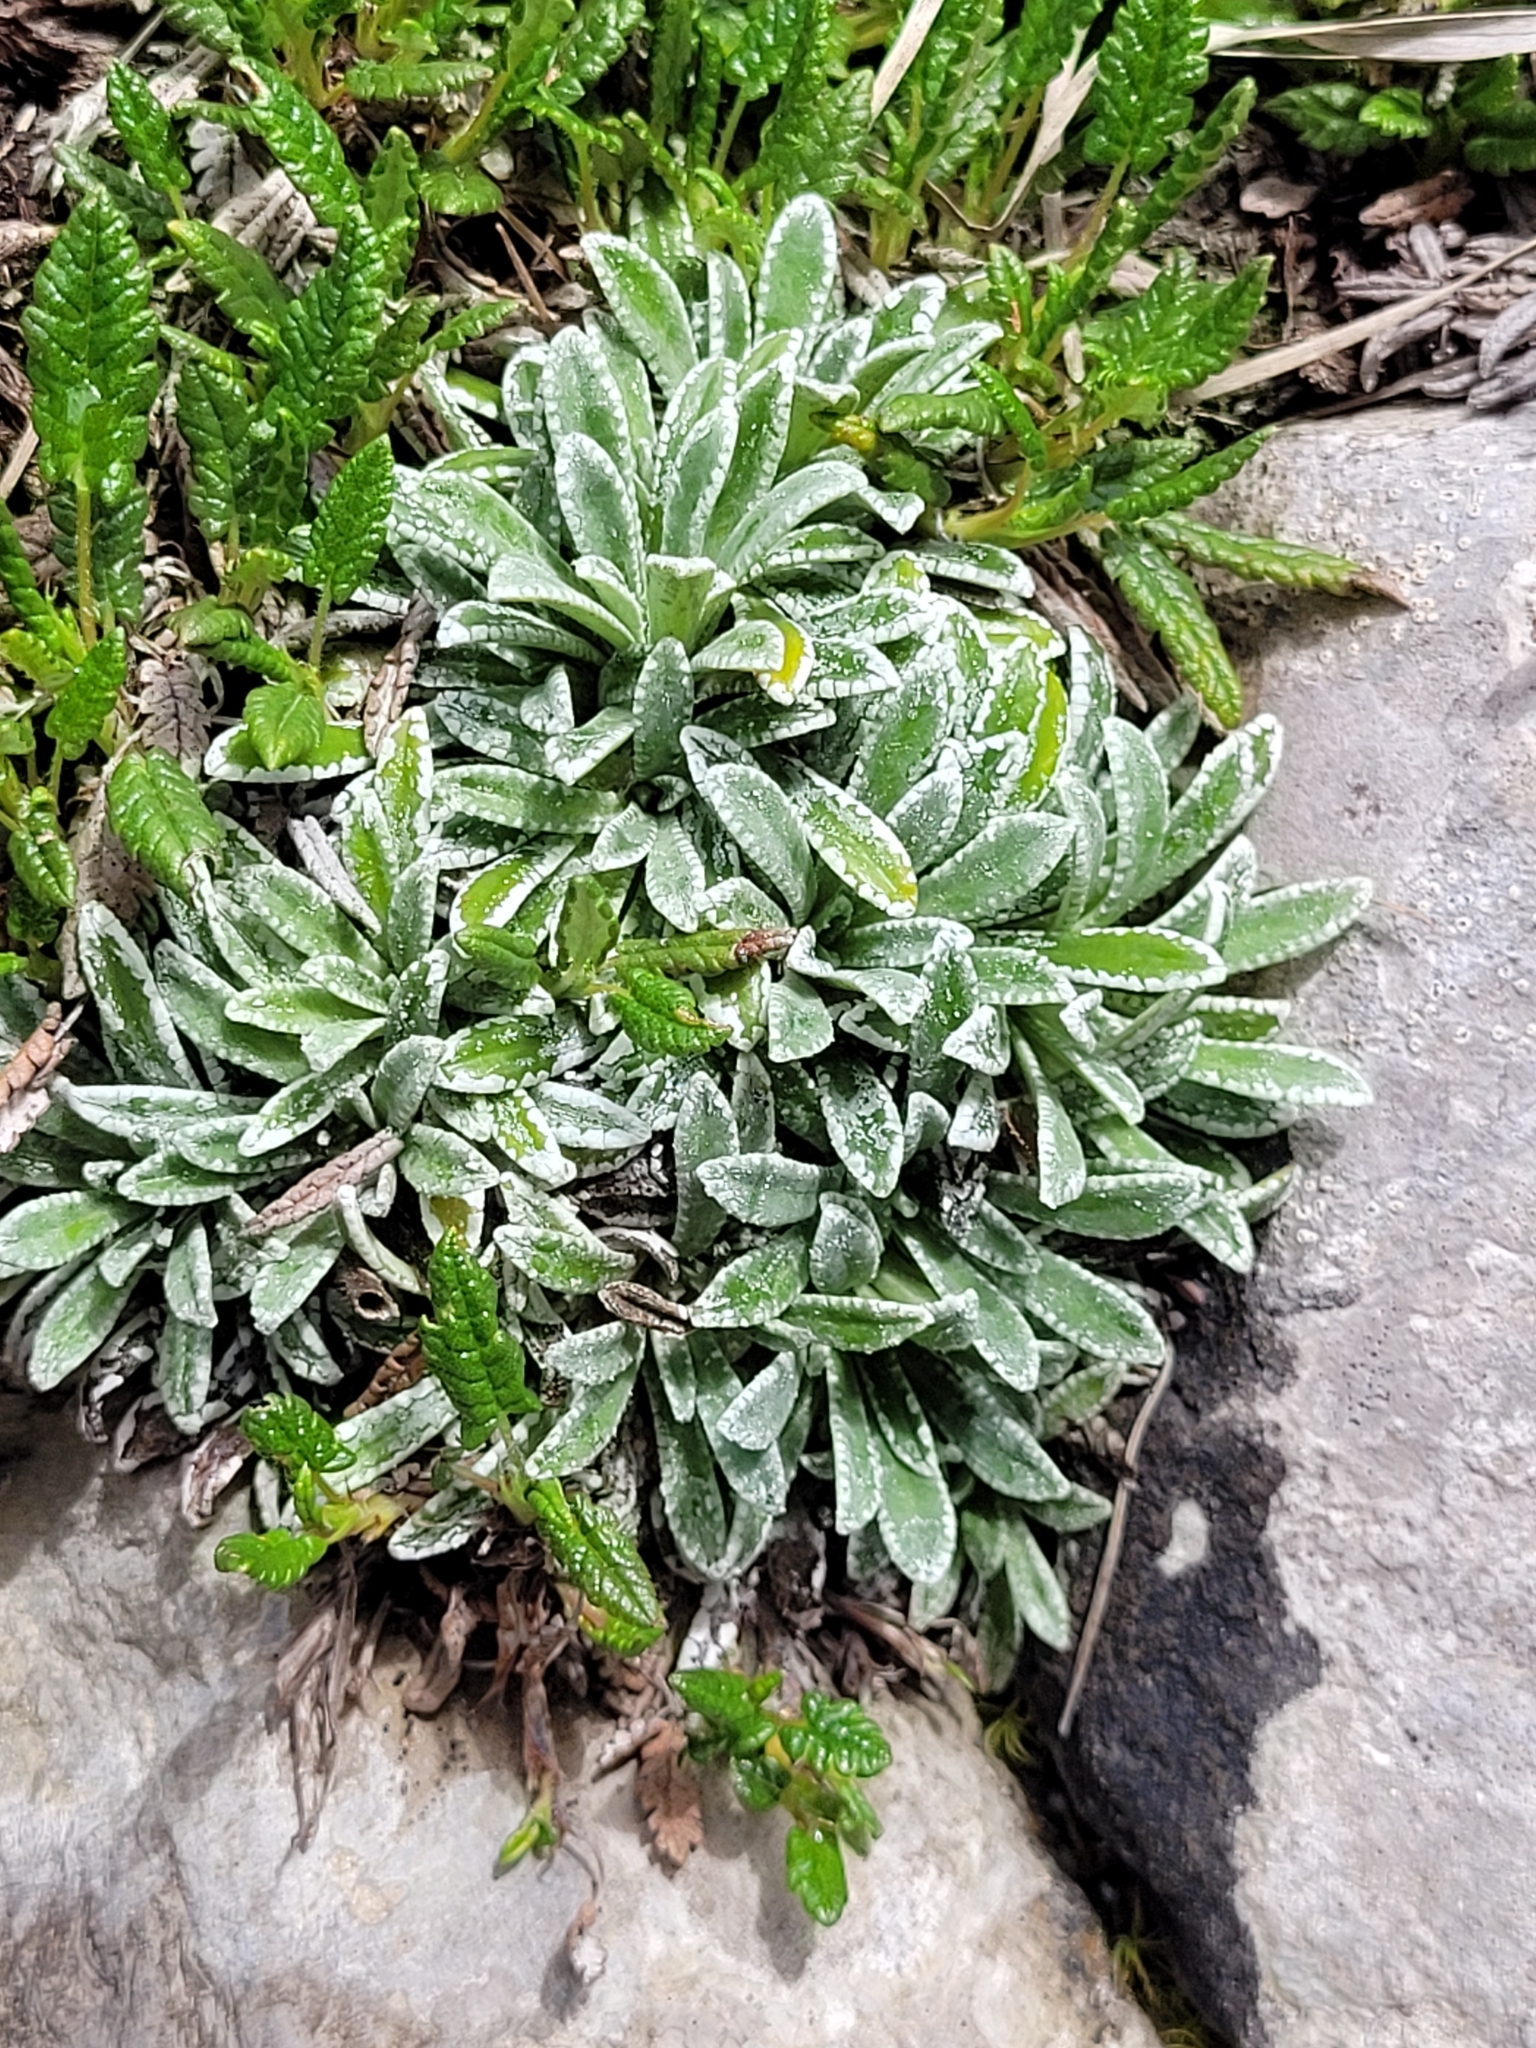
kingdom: Plantae
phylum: Tracheophyta
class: Magnoliopsida
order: Saxifragales
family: Saxifragaceae
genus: Saxifraga
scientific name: Saxifraga crustata
